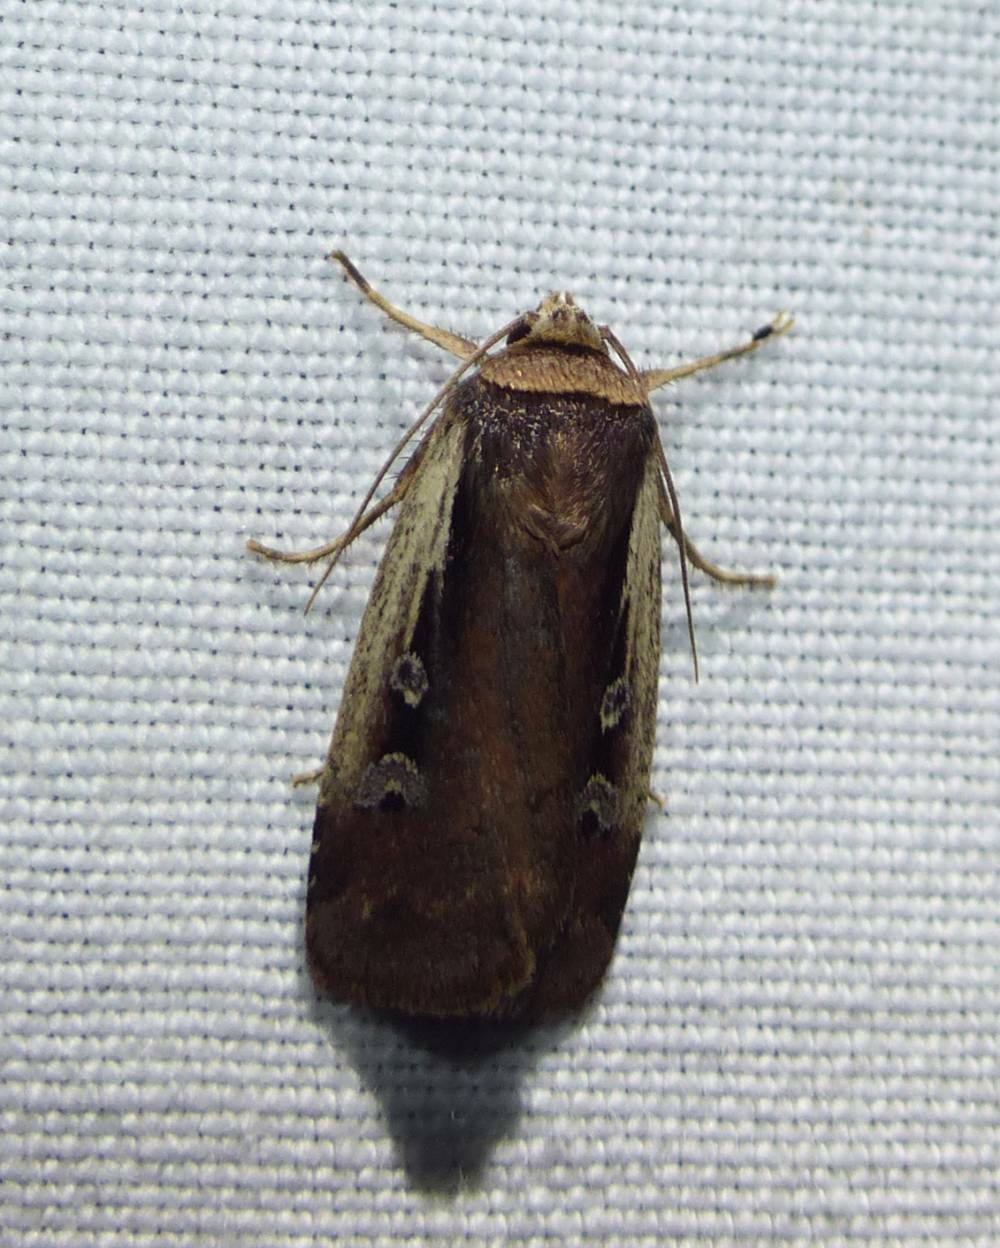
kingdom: Animalia
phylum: Arthropoda
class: Insecta
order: Lepidoptera
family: Noctuidae
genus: Ochropleura
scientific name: Ochropleura implecta
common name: Flame-shouldered dart
